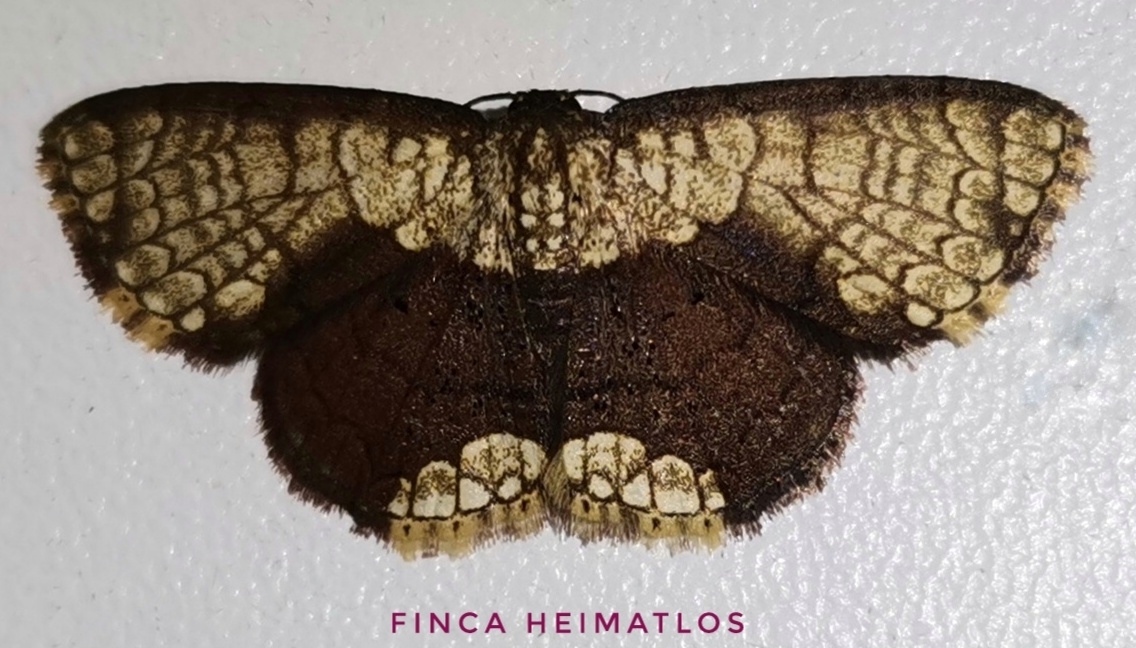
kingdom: Animalia
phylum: Arthropoda
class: Insecta
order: Lepidoptera
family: Geometridae
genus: Semaeopus
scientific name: Semaeopus semibrunnea
